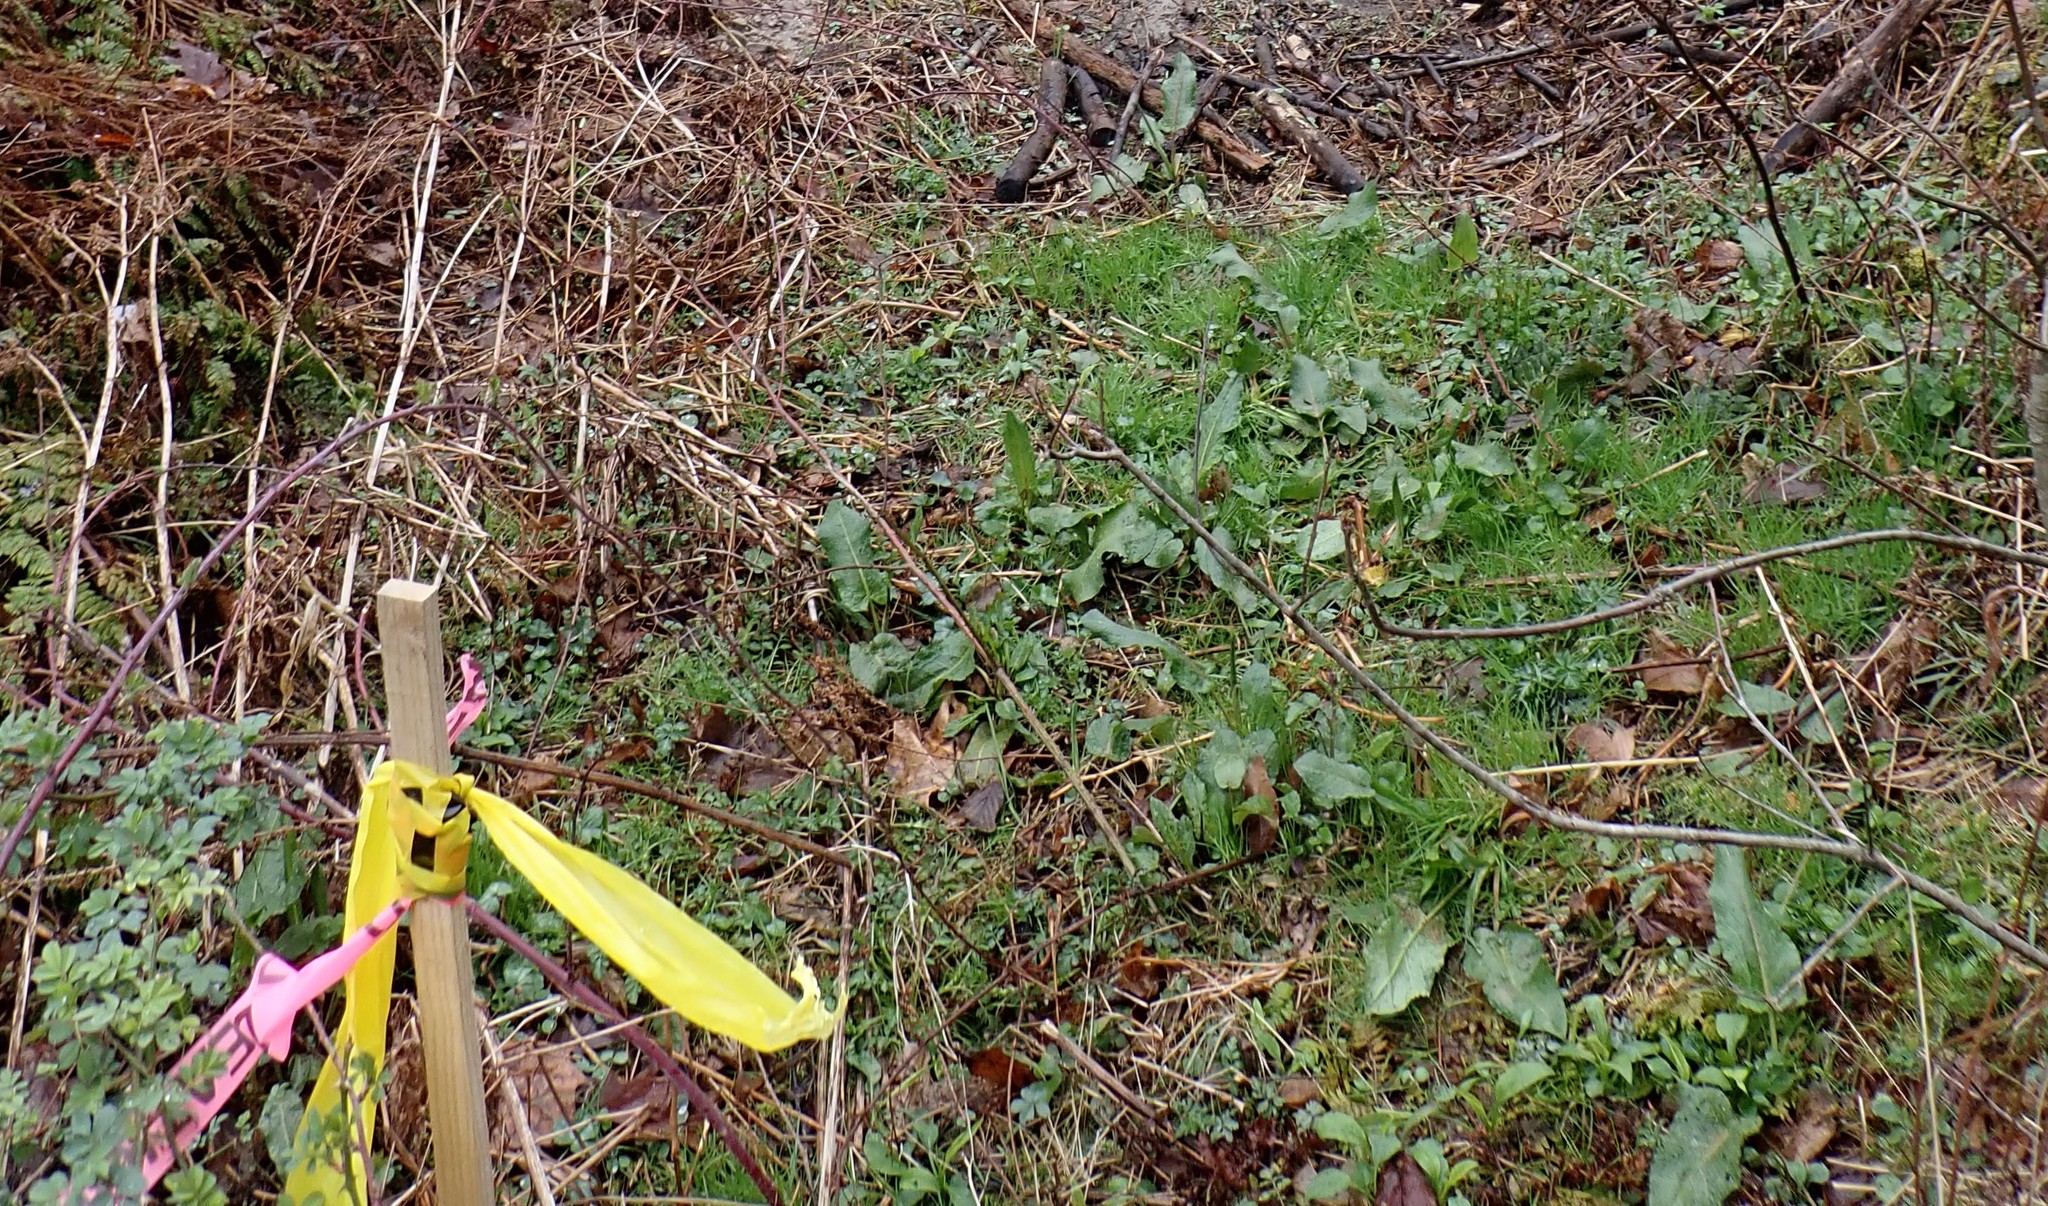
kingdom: Plantae
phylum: Tracheophyta
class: Magnoliopsida
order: Caryophyllales
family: Polygonaceae
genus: Rumex
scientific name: Rumex obtusifolius
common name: Bitter dock
